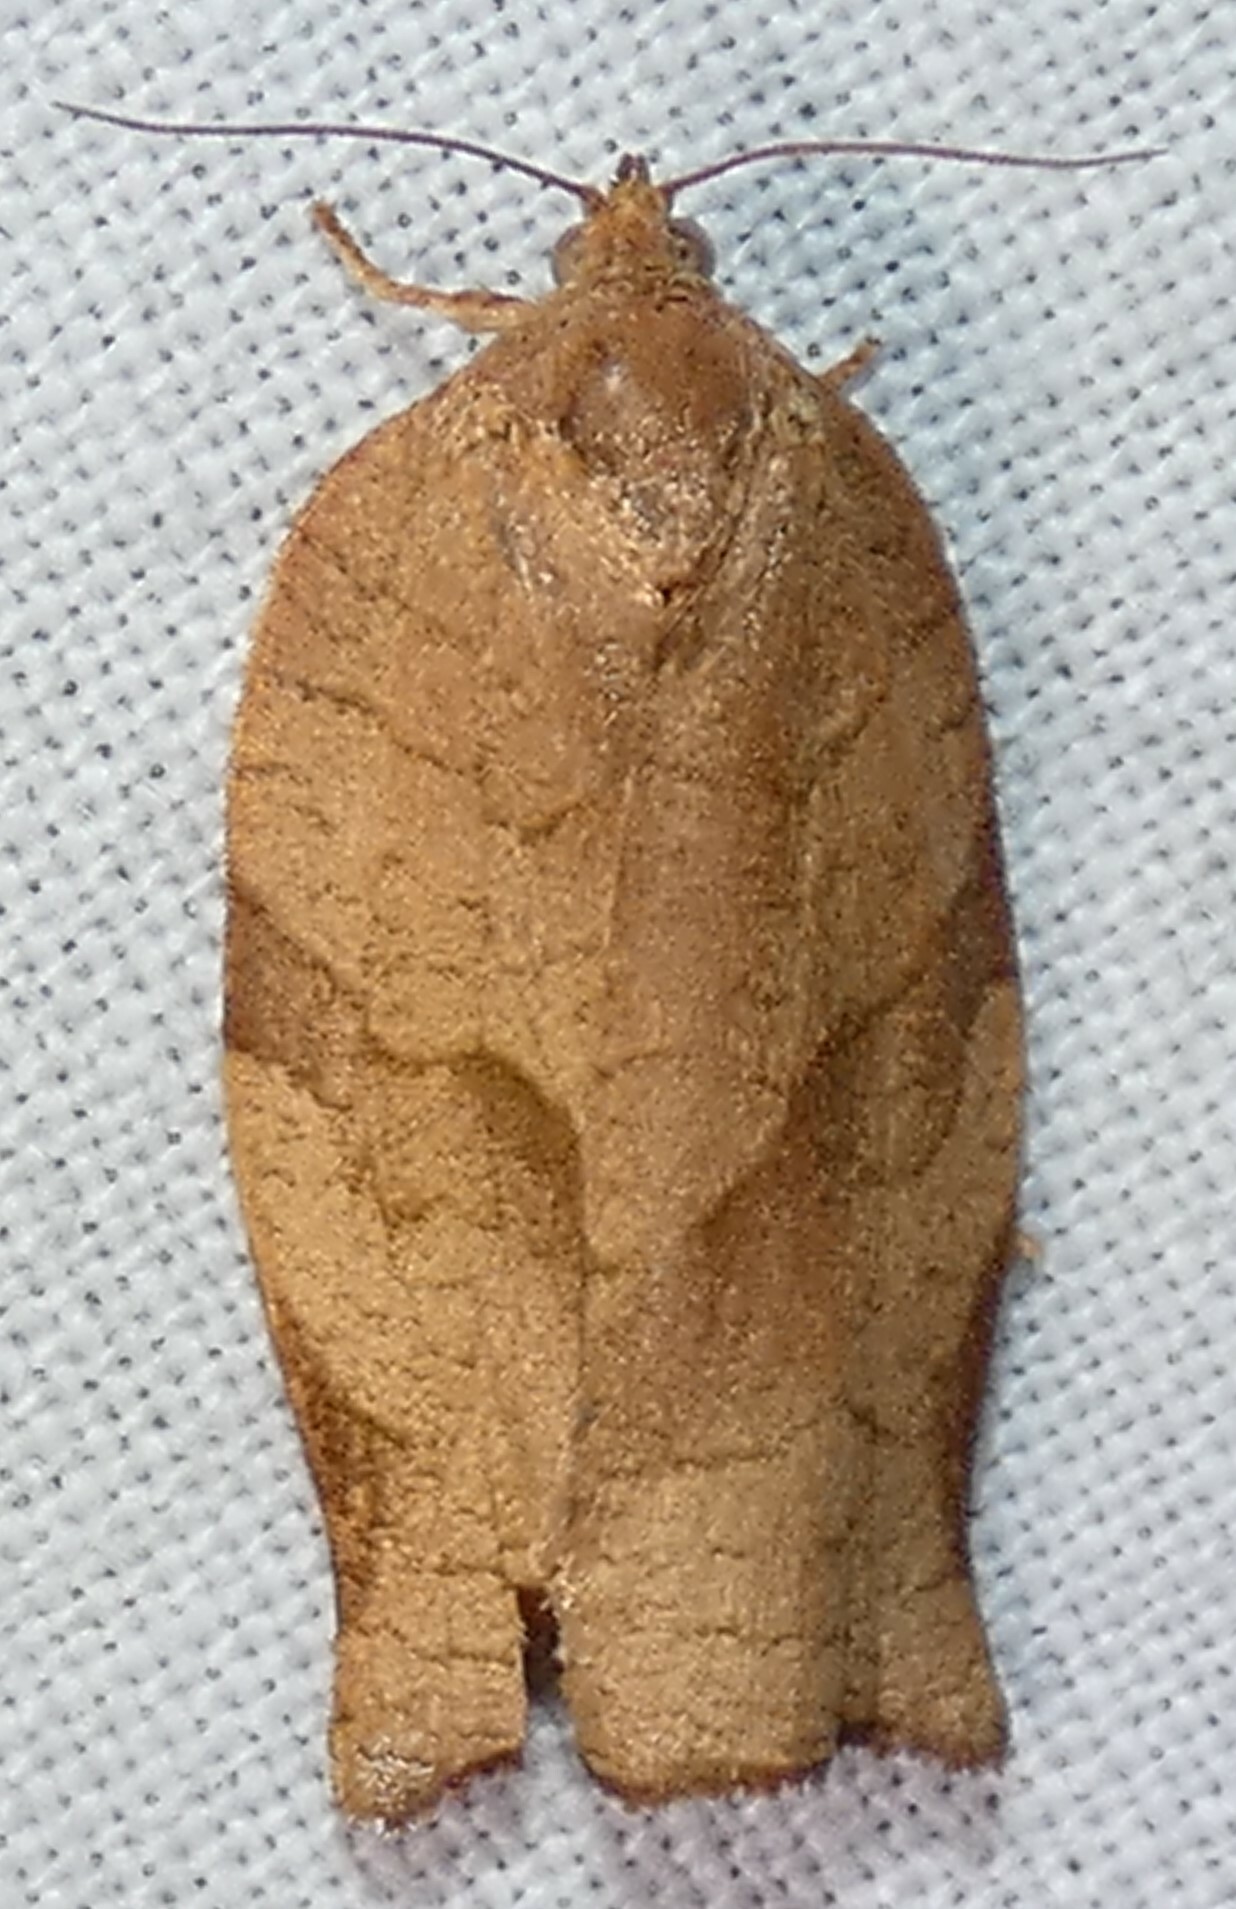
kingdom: Animalia
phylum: Arthropoda
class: Insecta
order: Lepidoptera
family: Tortricidae
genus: Choristoneura
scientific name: Choristoneura rosaceana
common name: Oblique-banded leafroller moth
